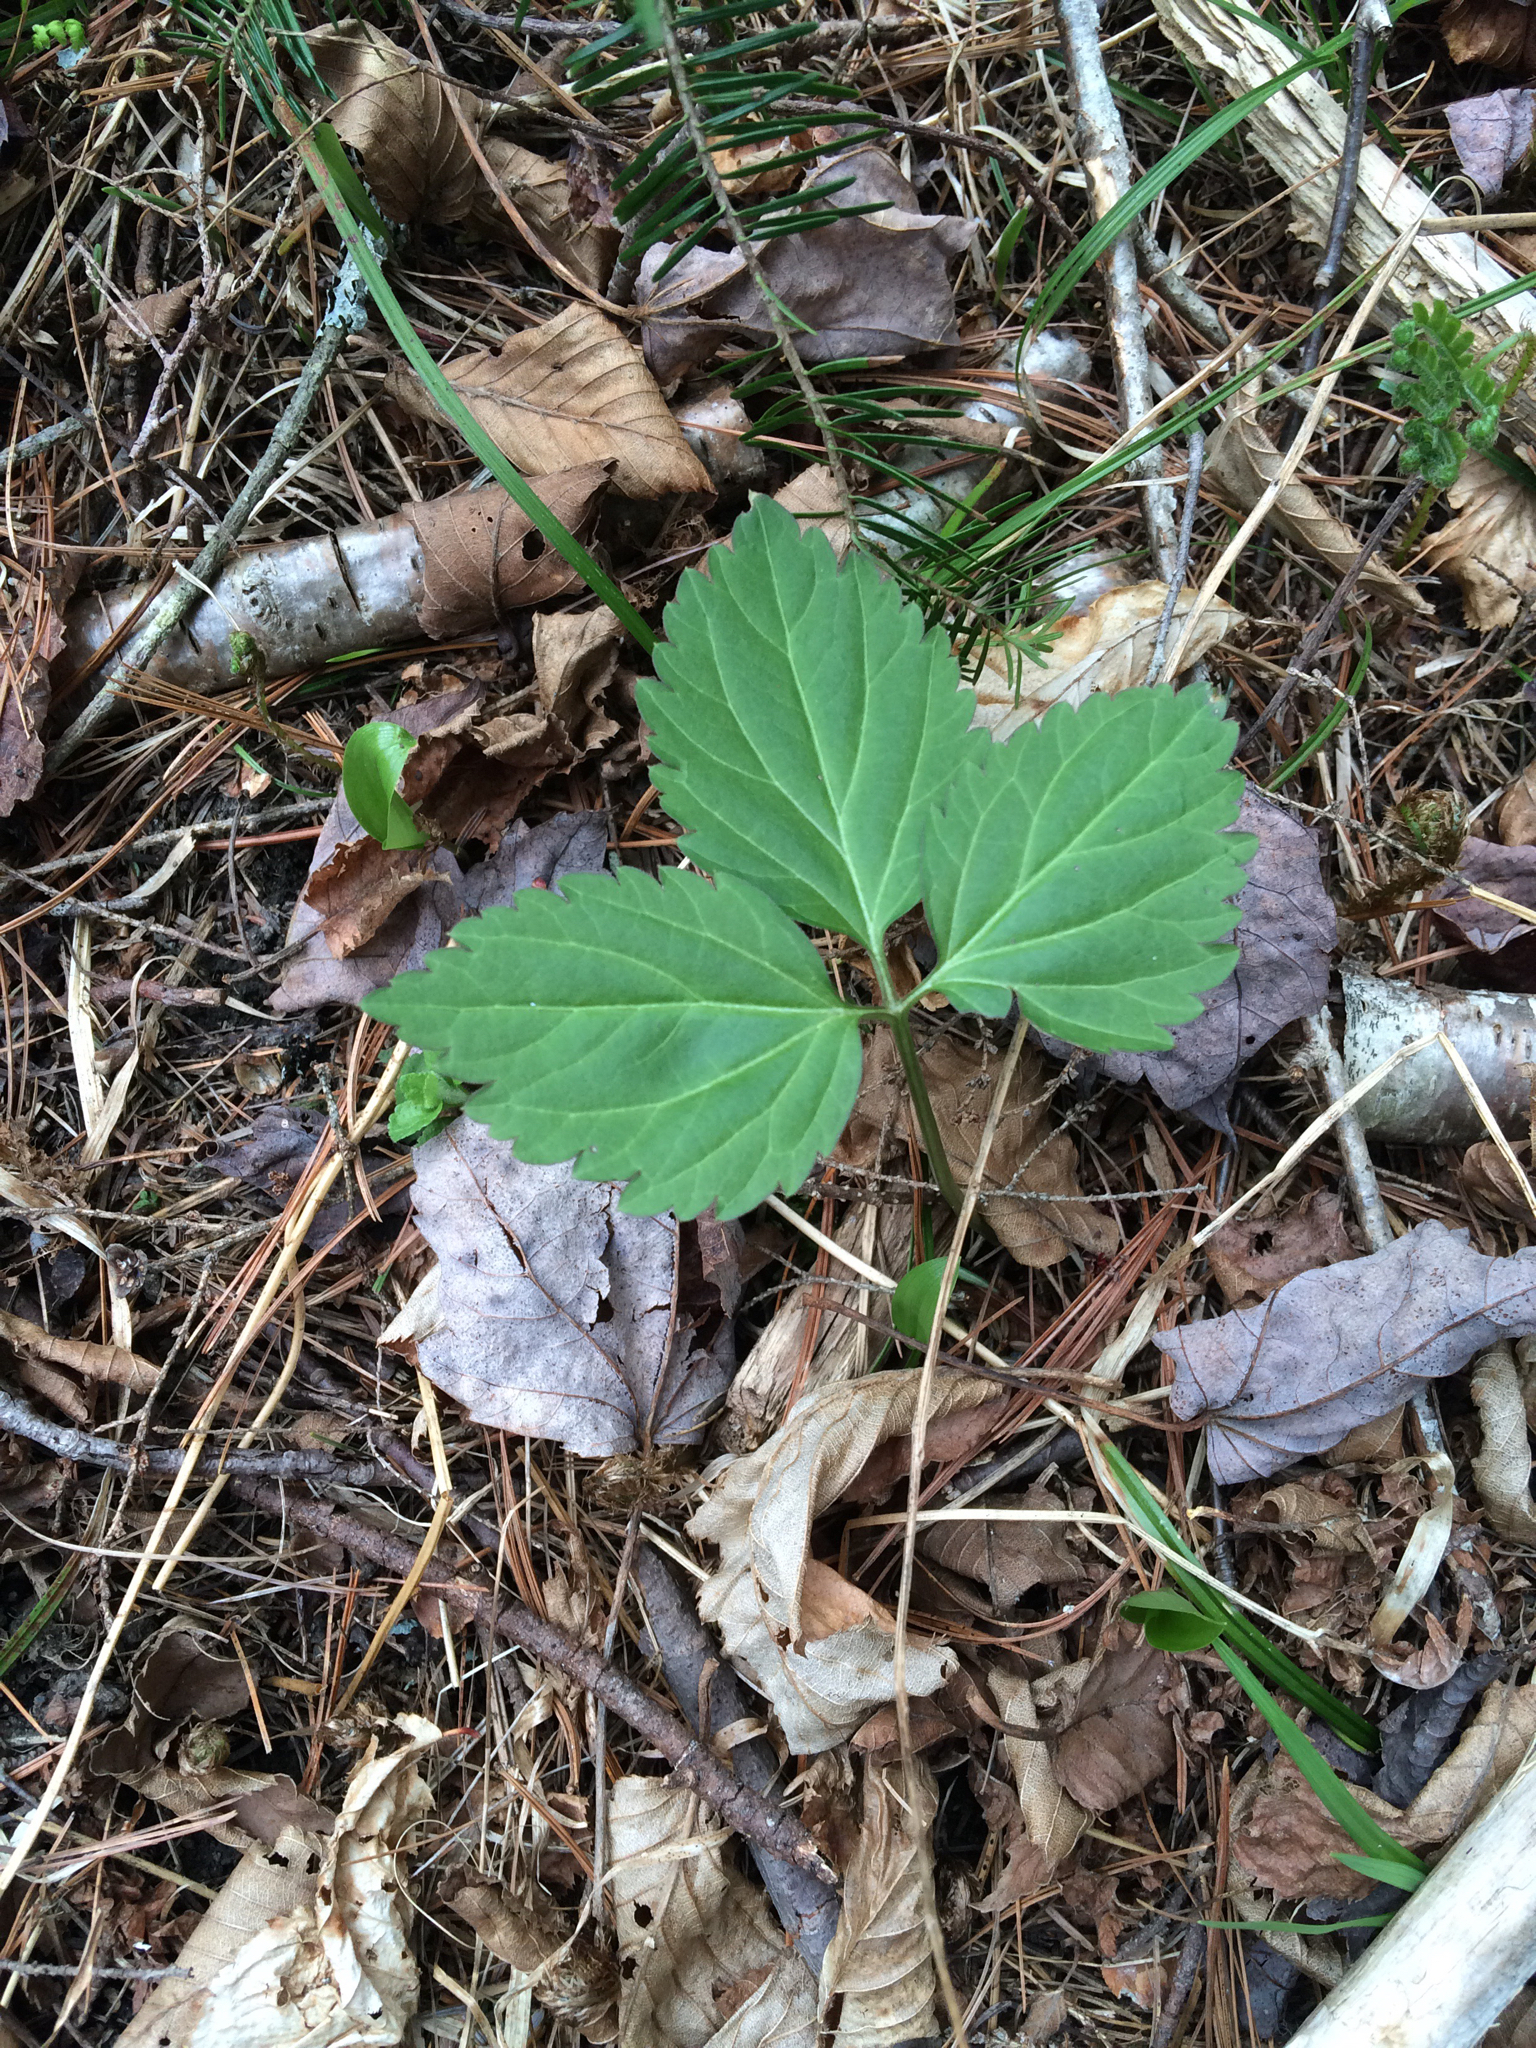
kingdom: Plantae
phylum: Tracheophyta
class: Magnoliopsida
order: Brassicales
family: Brassicaceae
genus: Cardamine
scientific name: Cardamine diphylla
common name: Broad-leaved toothwort
